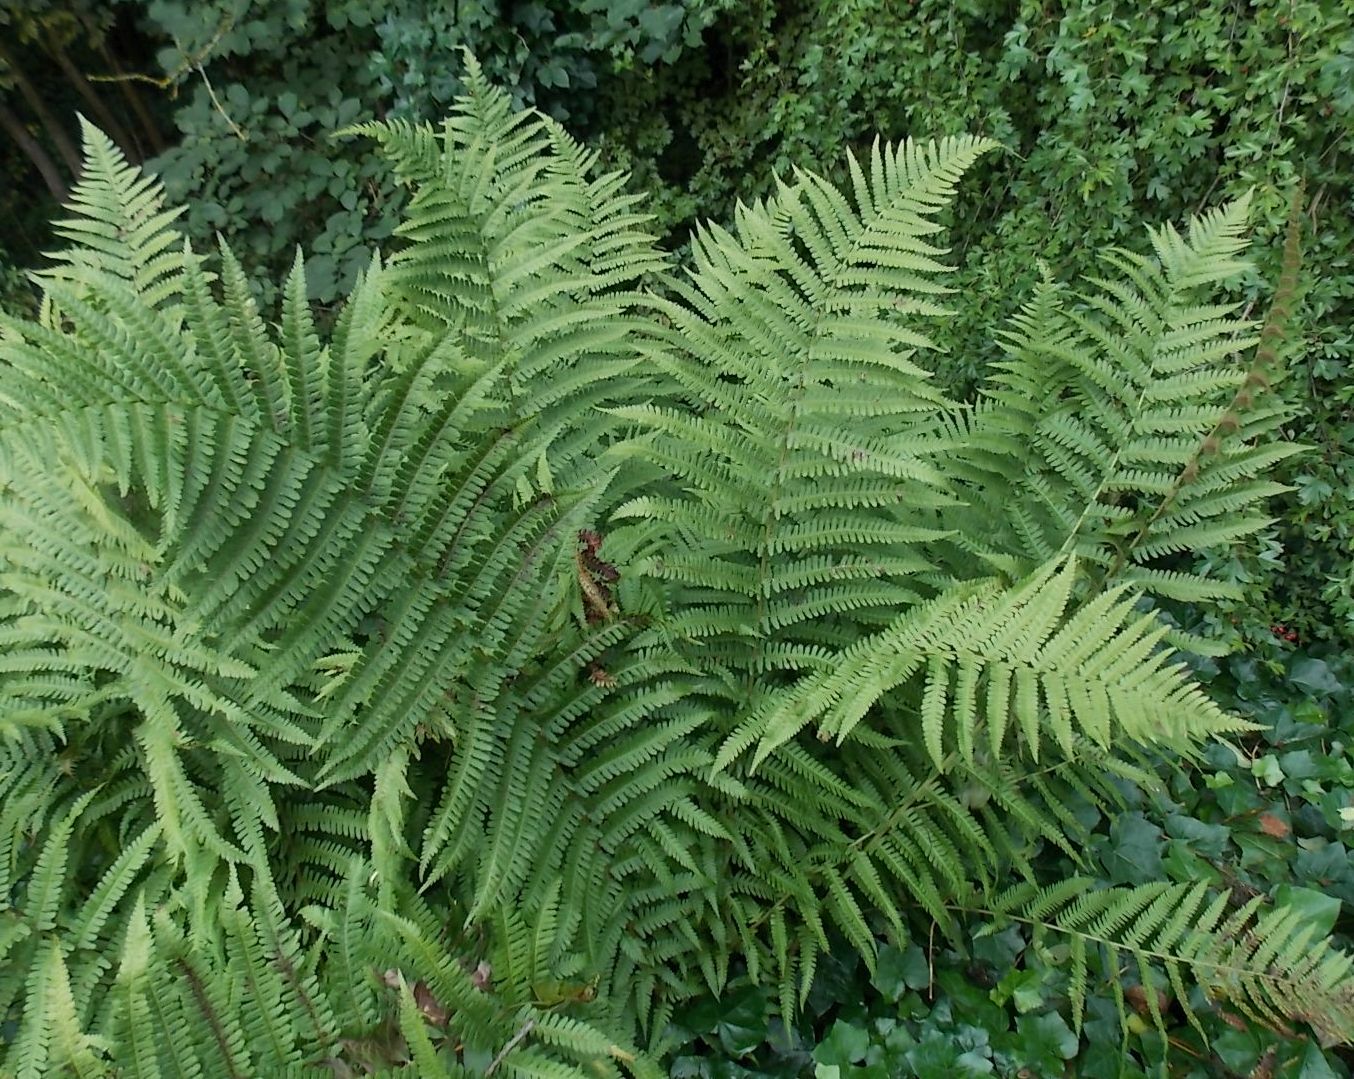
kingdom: Plantae
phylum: Tracheophyta
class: Polypodiopsida
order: Polypodiales
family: Dryopteridaceae
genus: Dryopteris
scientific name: Dryopteris filix-mas
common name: Male fern
